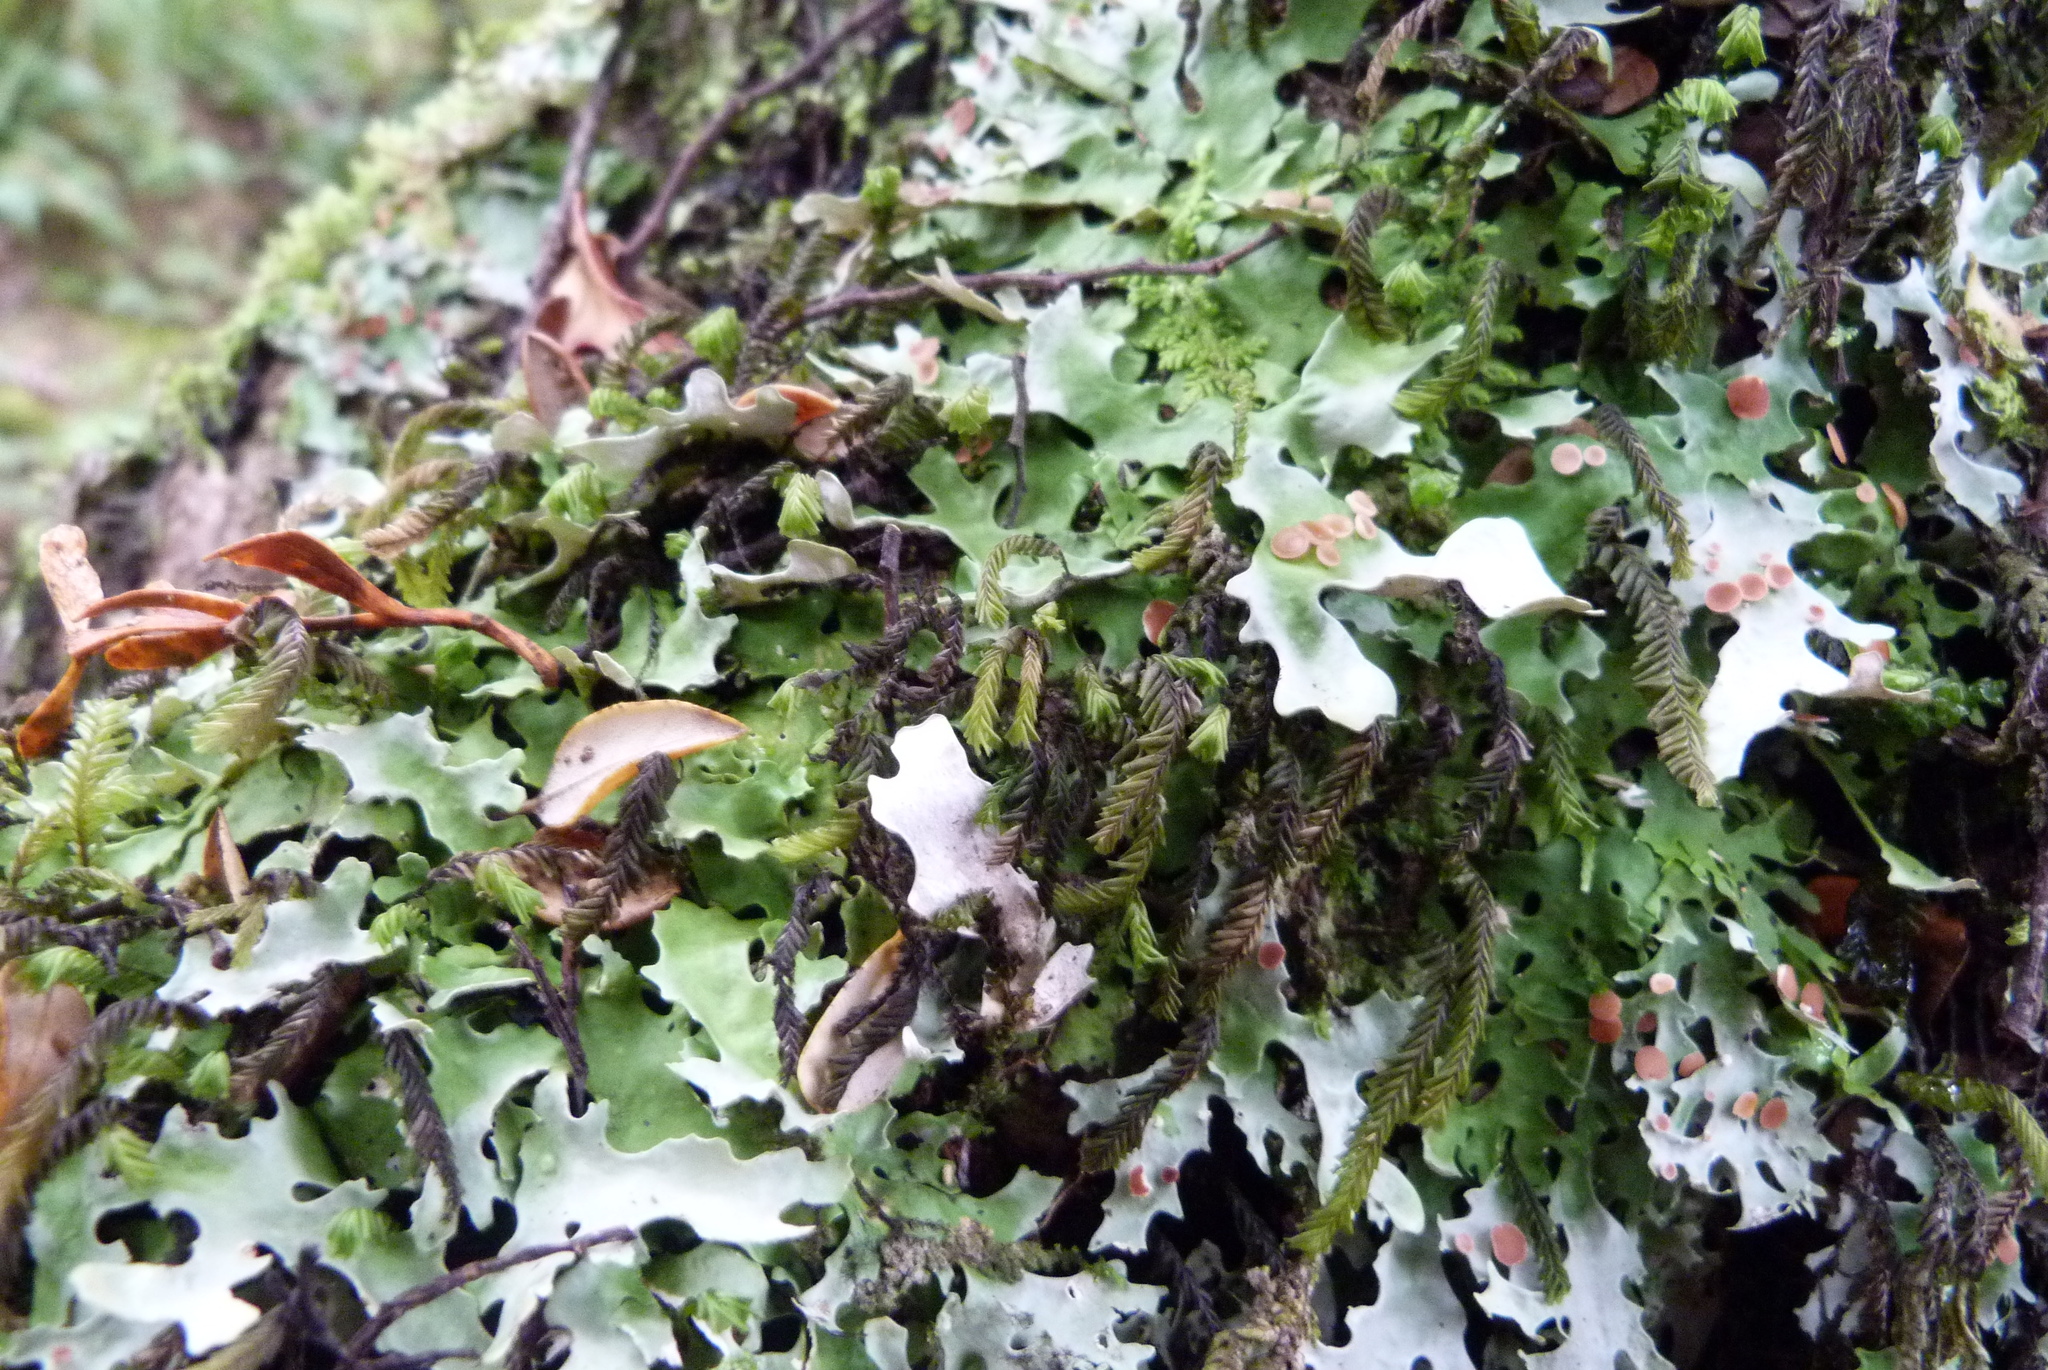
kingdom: Fungi
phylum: Ascomycota
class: Lecanoromycetes
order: Peltigerales
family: Lobariaceae
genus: Pseudocyphellaria
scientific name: Pseudocyphellaria homeophylla
